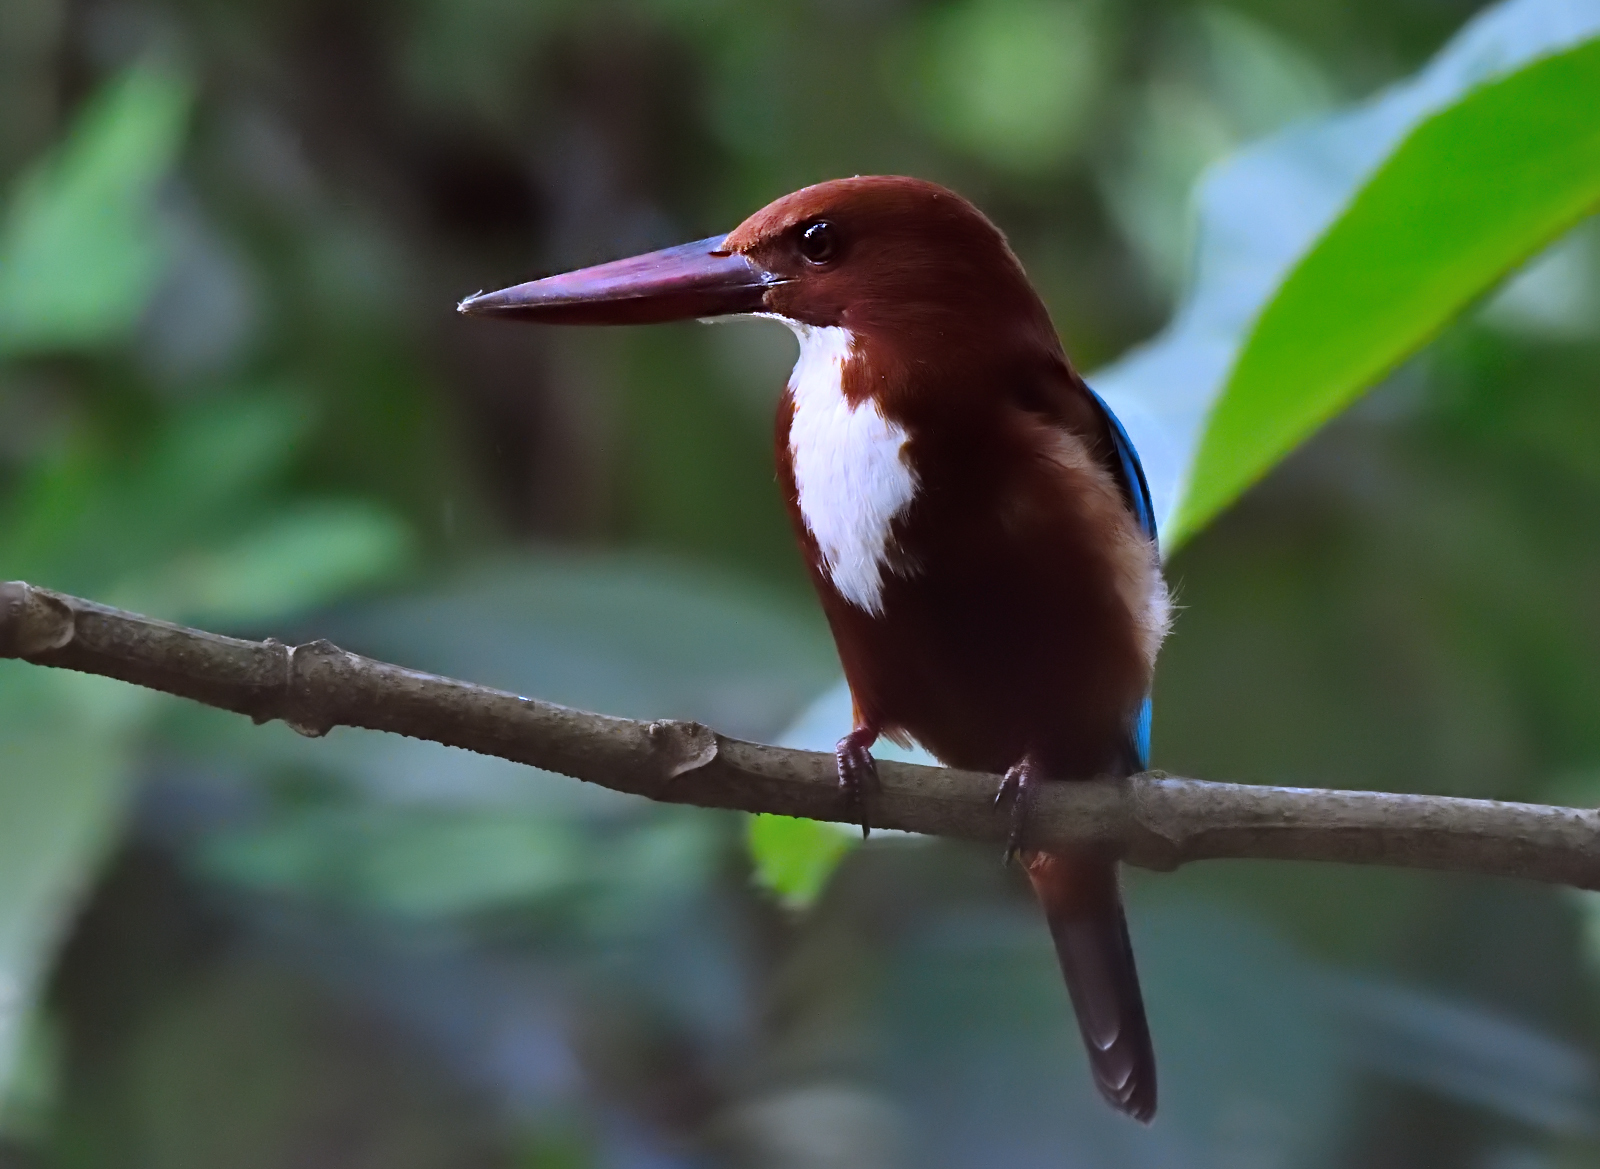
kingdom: Animalia
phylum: Chordata
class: Aves
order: Coraciiformes
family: Alcedinidae
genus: Halcyon
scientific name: Halcyon smyrnensis
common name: White-throated kingfisher
